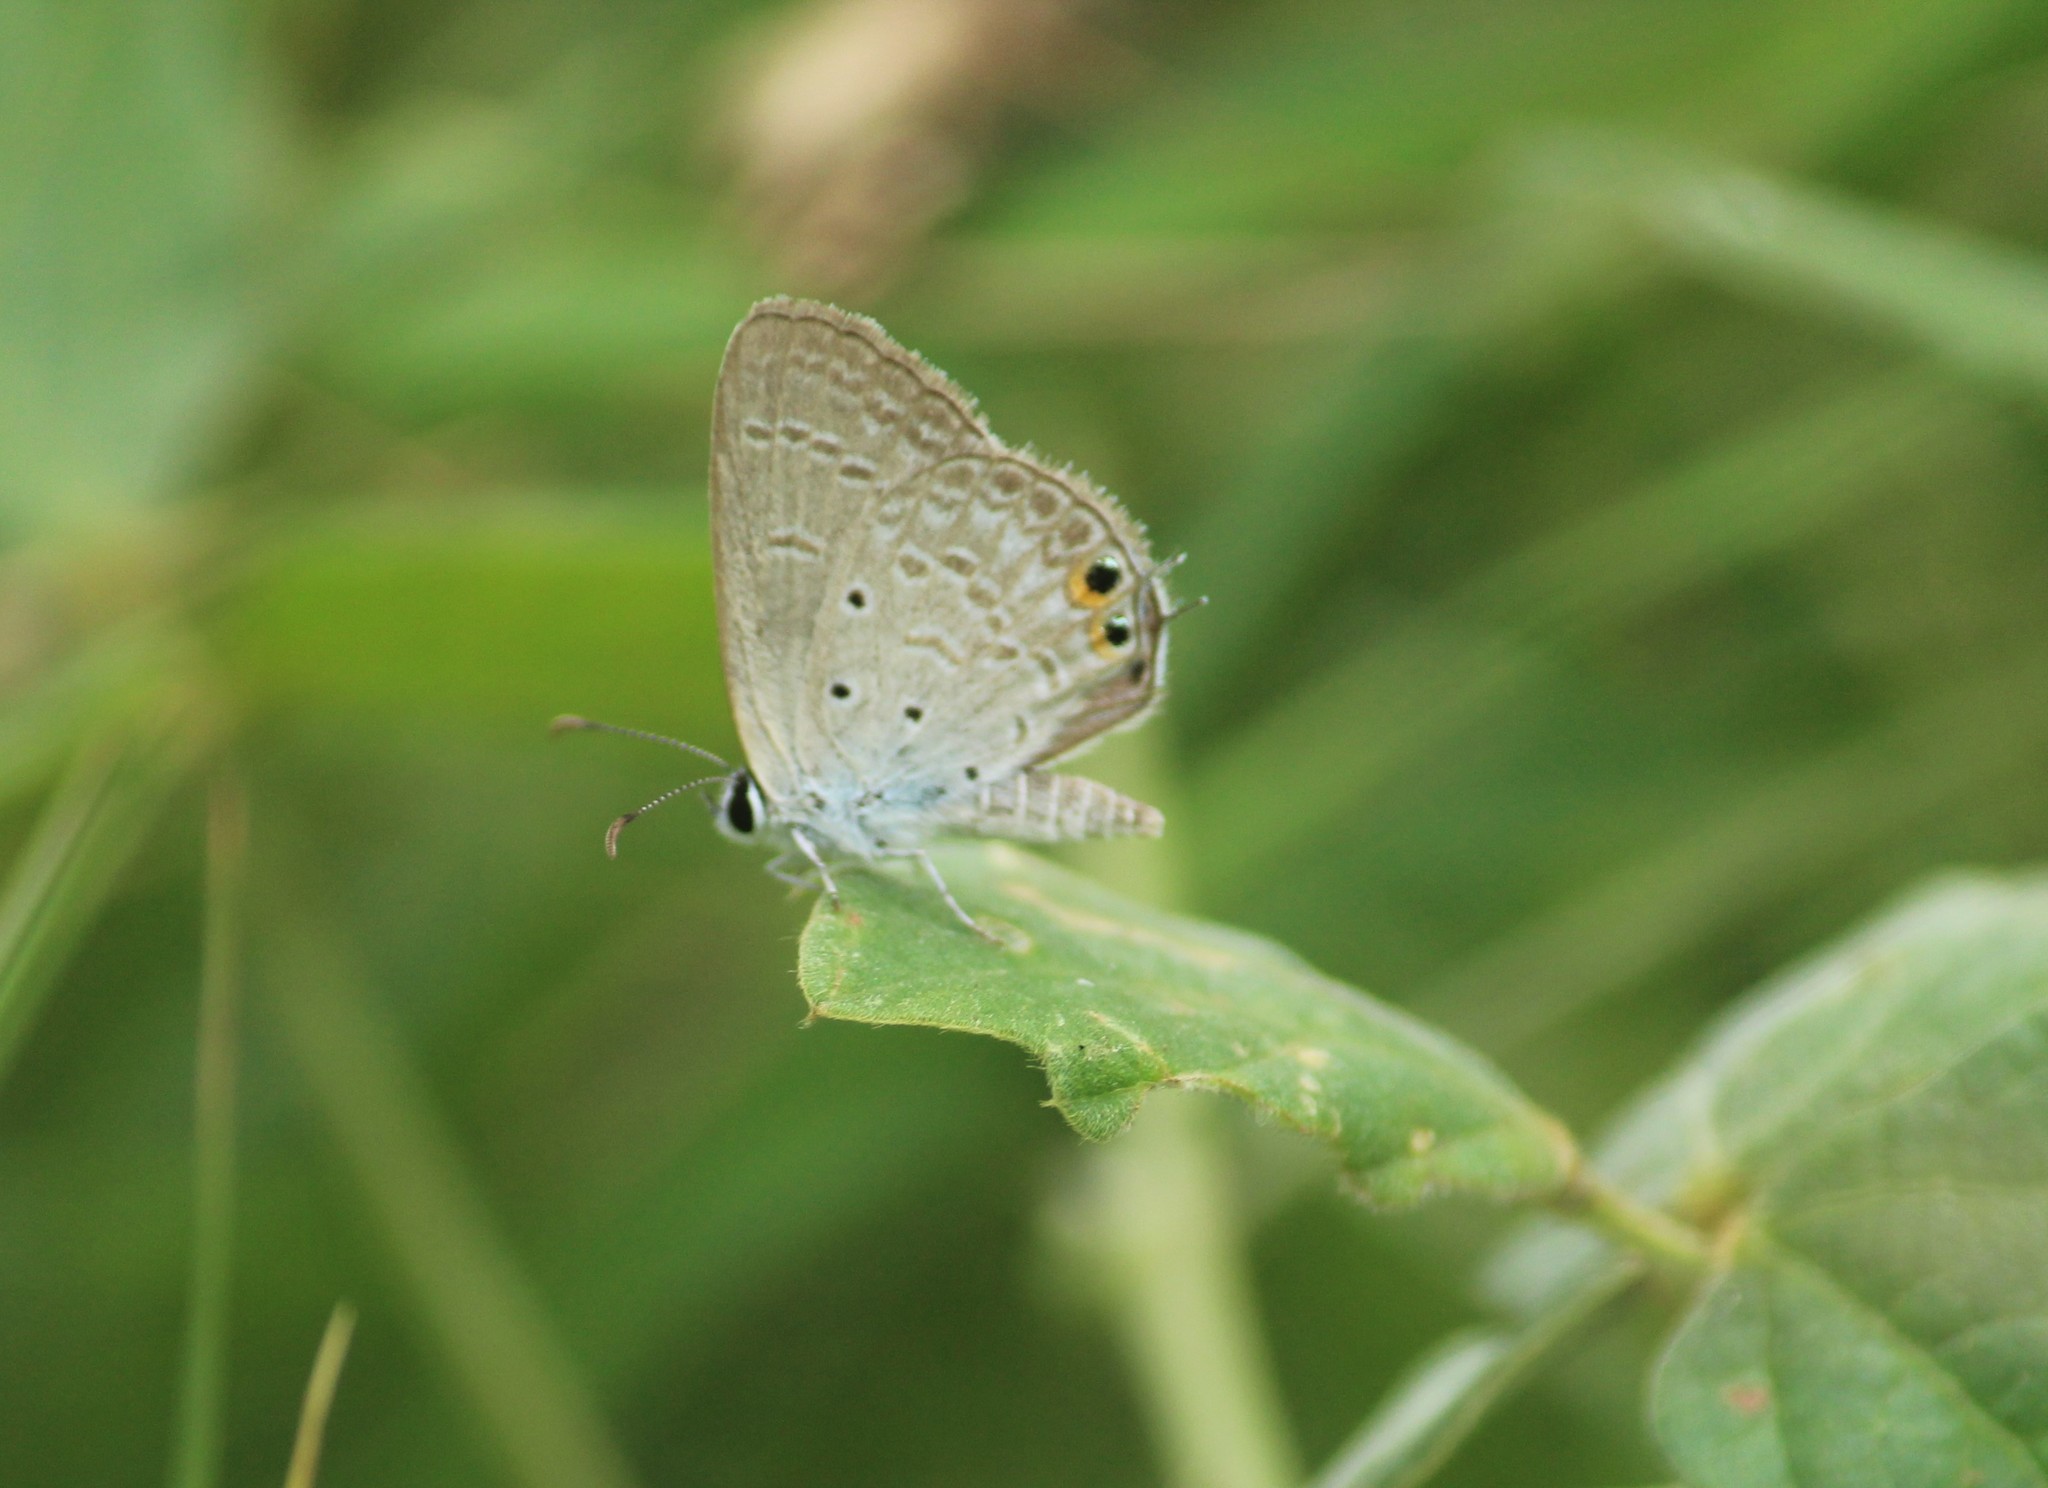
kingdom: Animalia
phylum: Arthropoda
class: Insecta
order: Lepidoptera
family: Lycaenidae
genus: Euchrysops
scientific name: Euchrysops cnejus
